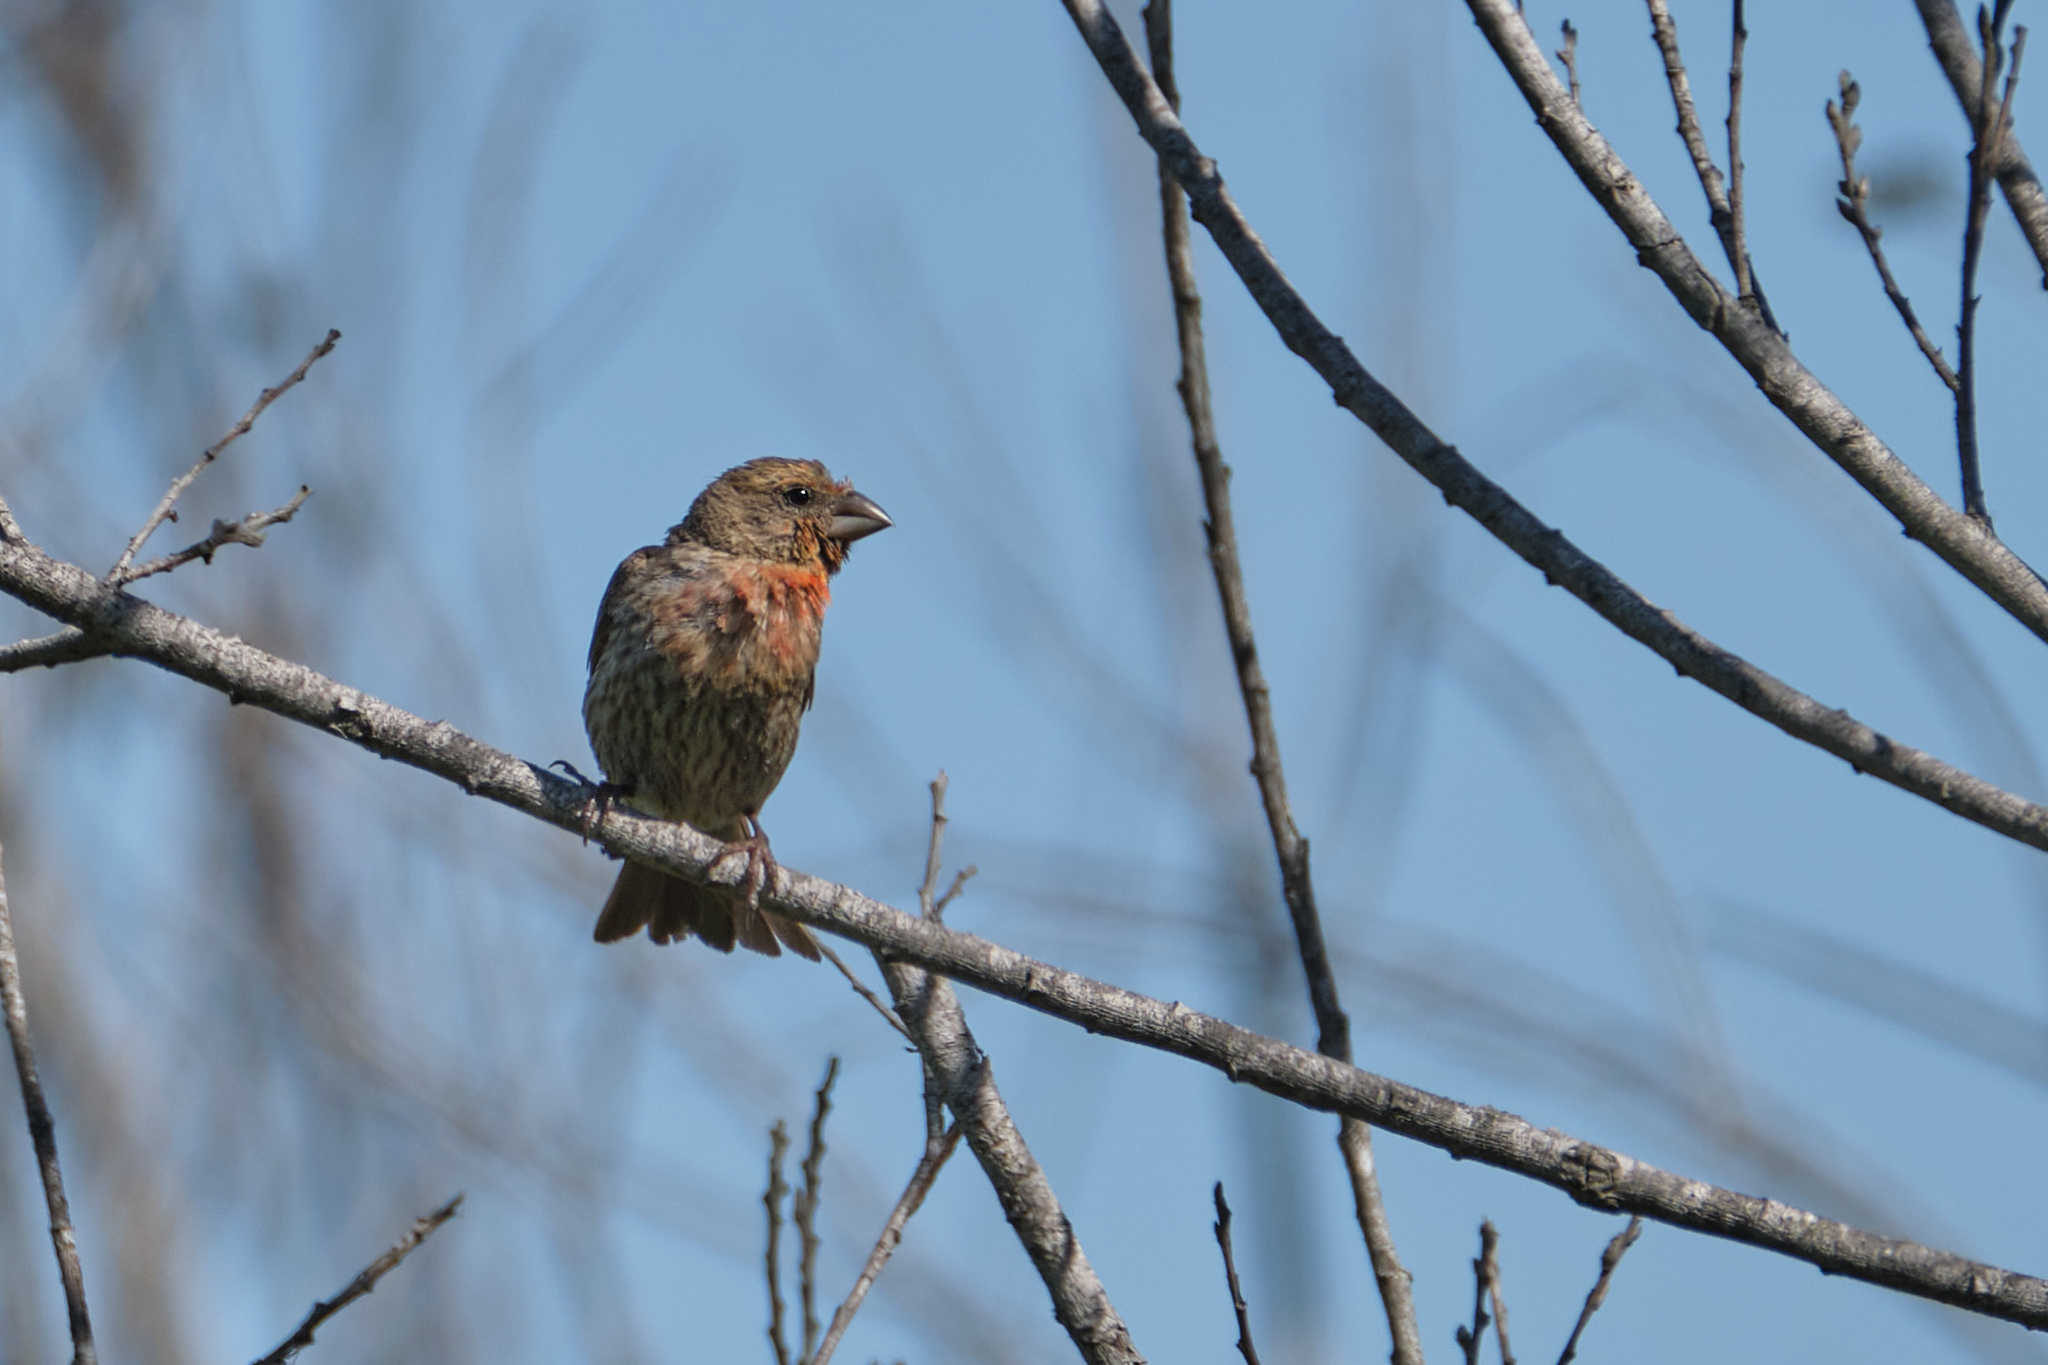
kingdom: Animalia
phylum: Chordata
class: Aves
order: Passeriformes
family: Fringillidae
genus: Haemorhous
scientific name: Haemorhous mexicanus
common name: House finch
